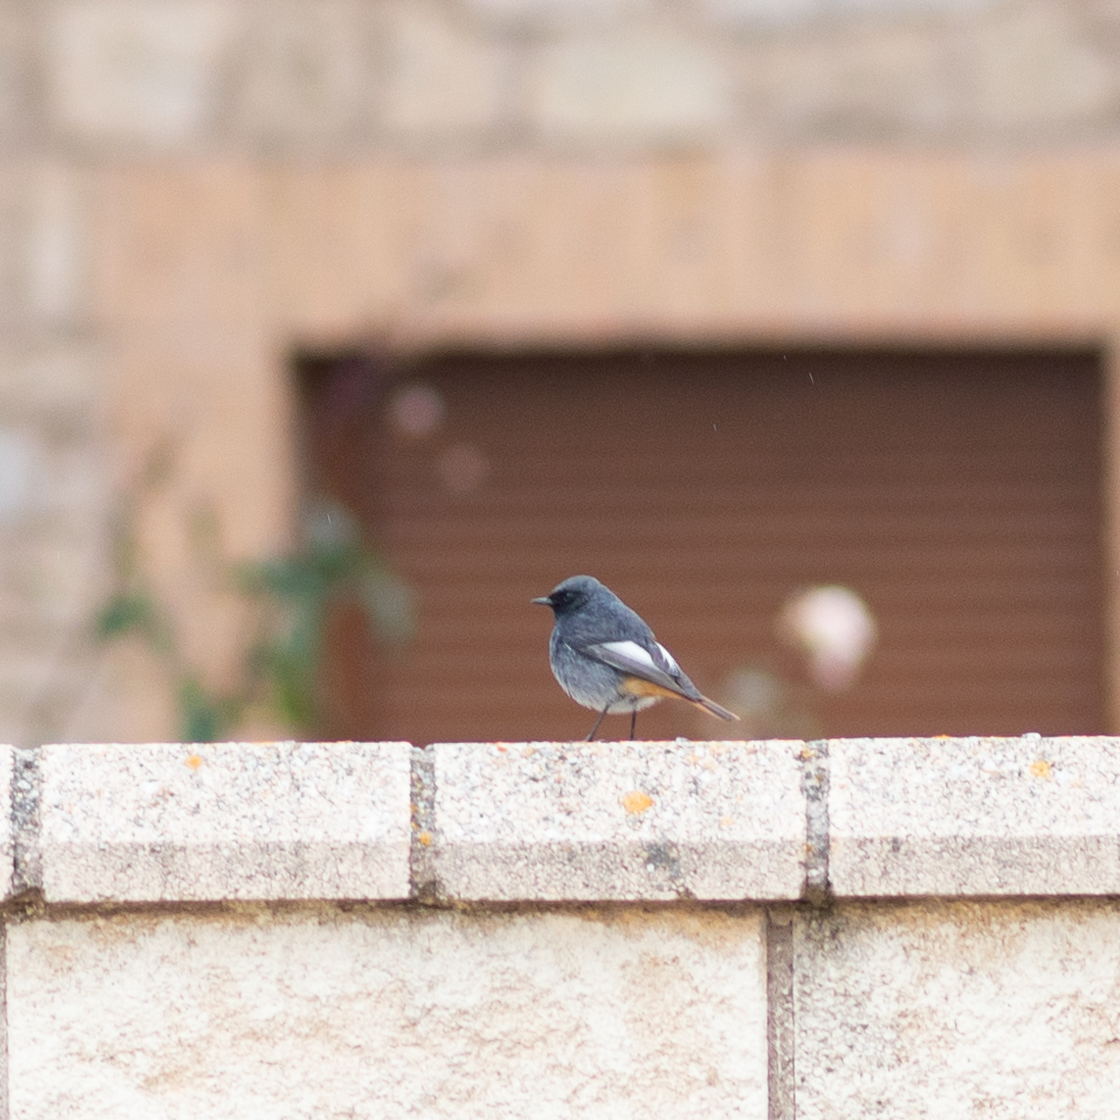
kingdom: Animalia
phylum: Chordata
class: Aves
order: Passeriformes
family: Muscicapidae
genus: Phoenicurus
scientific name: Phoenicurus ochruros
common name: Black redstart
